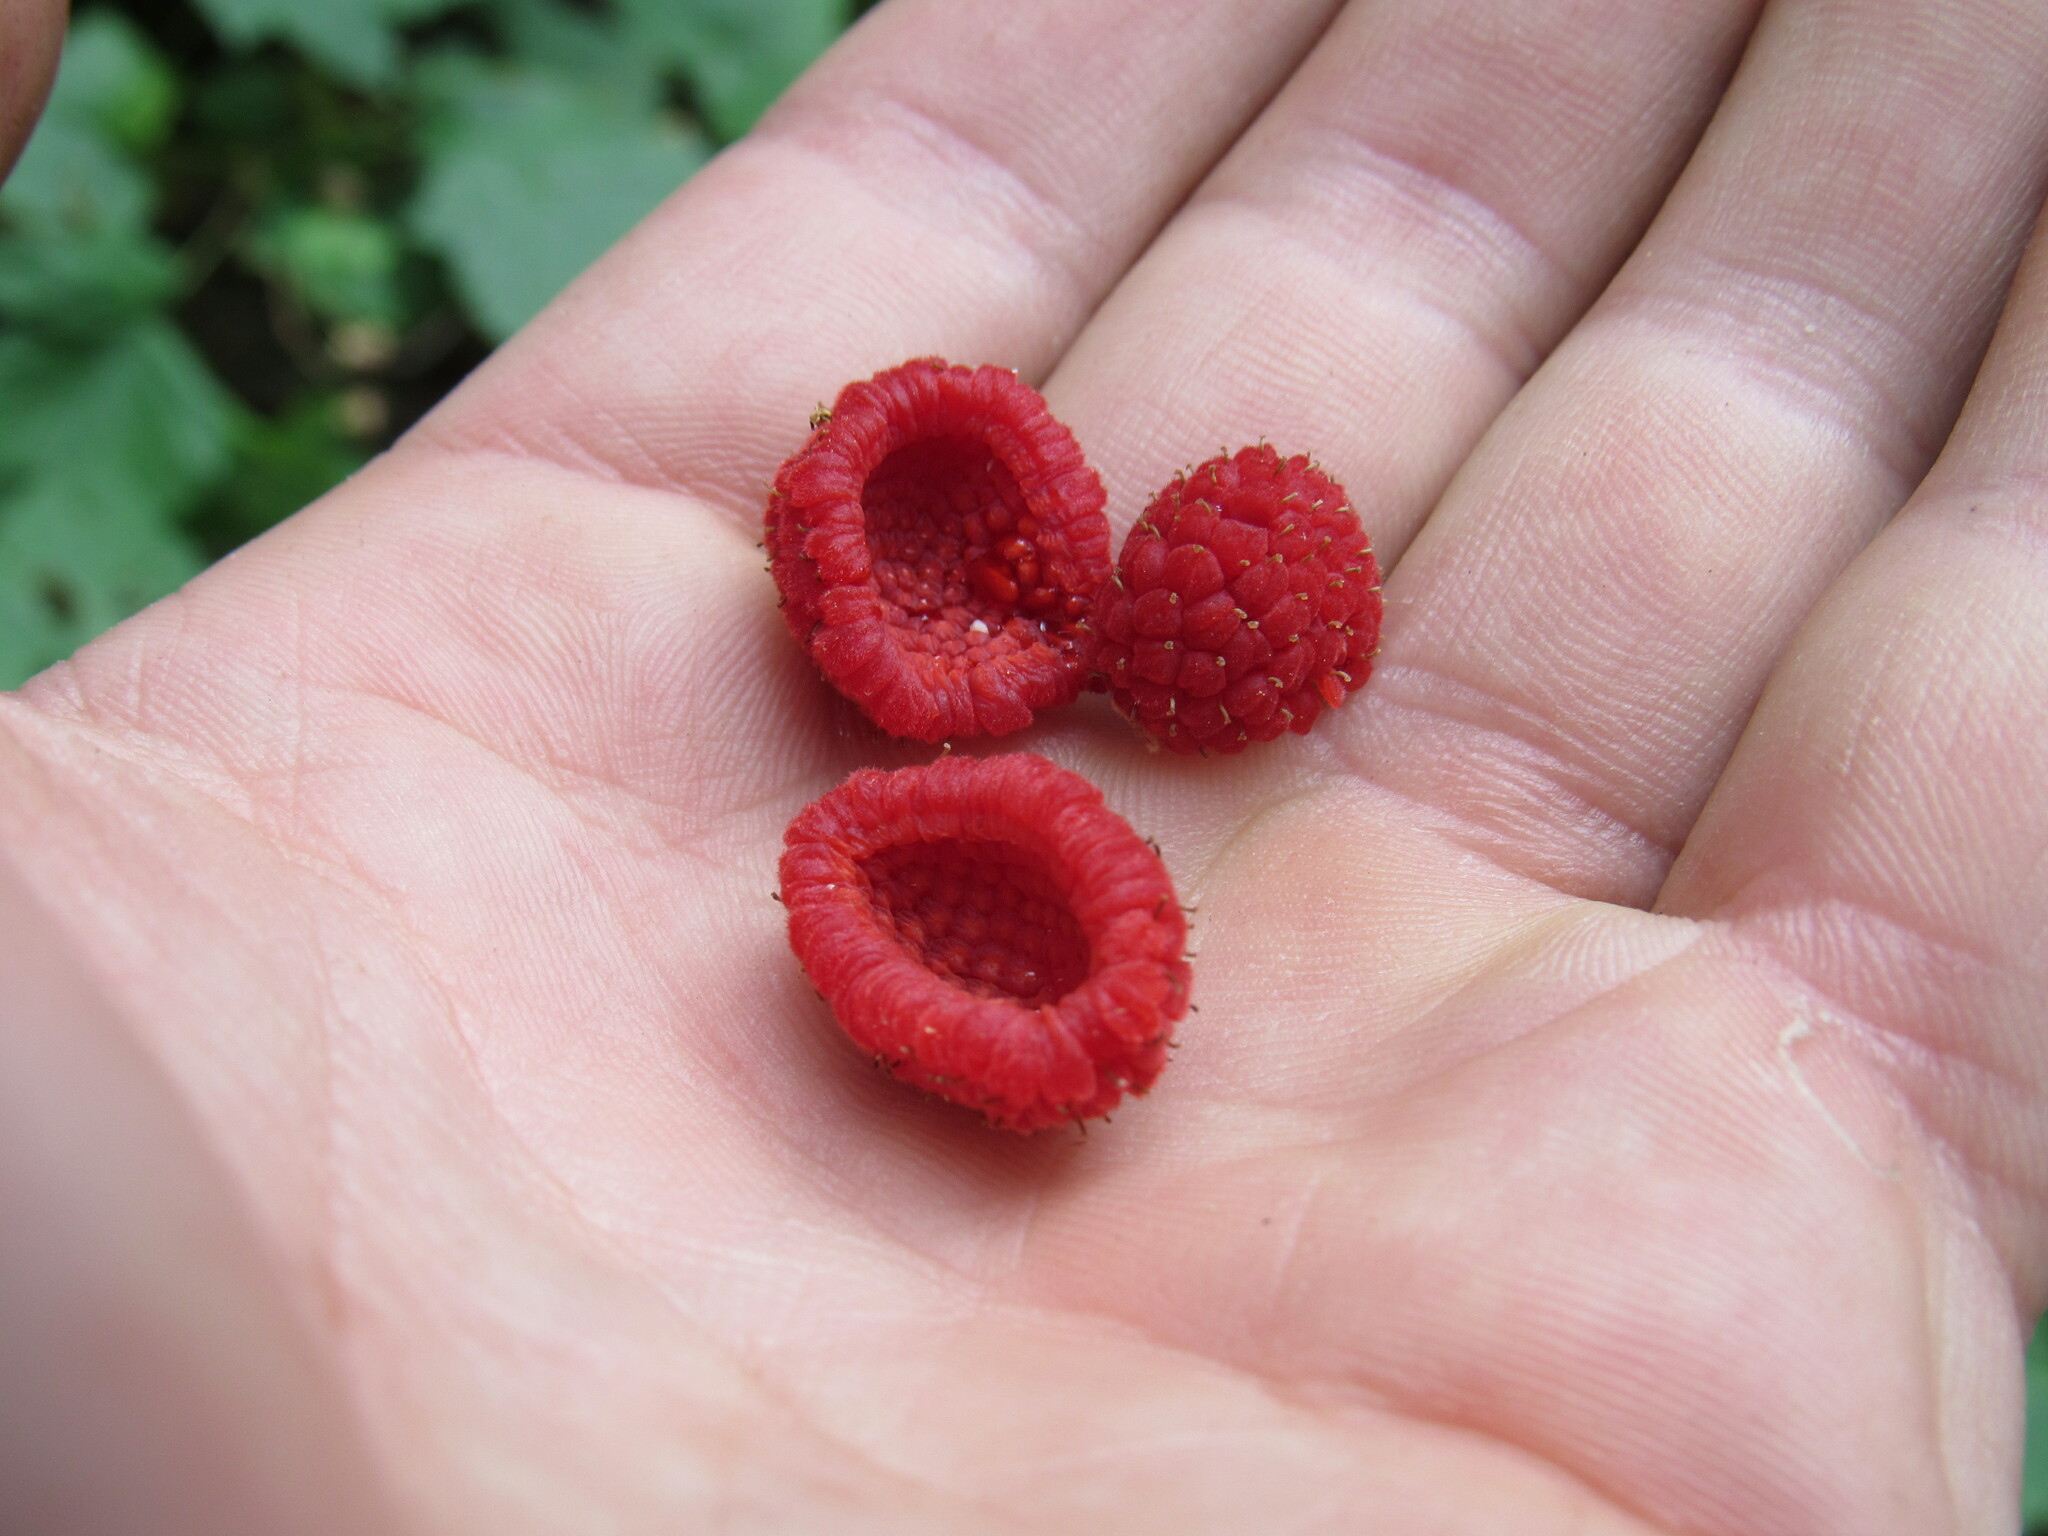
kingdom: Plantae
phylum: Tracheophyta
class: Magnoliopsida
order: Rosales
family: Rosaceae
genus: Rubus
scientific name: Rubus parviflorus
